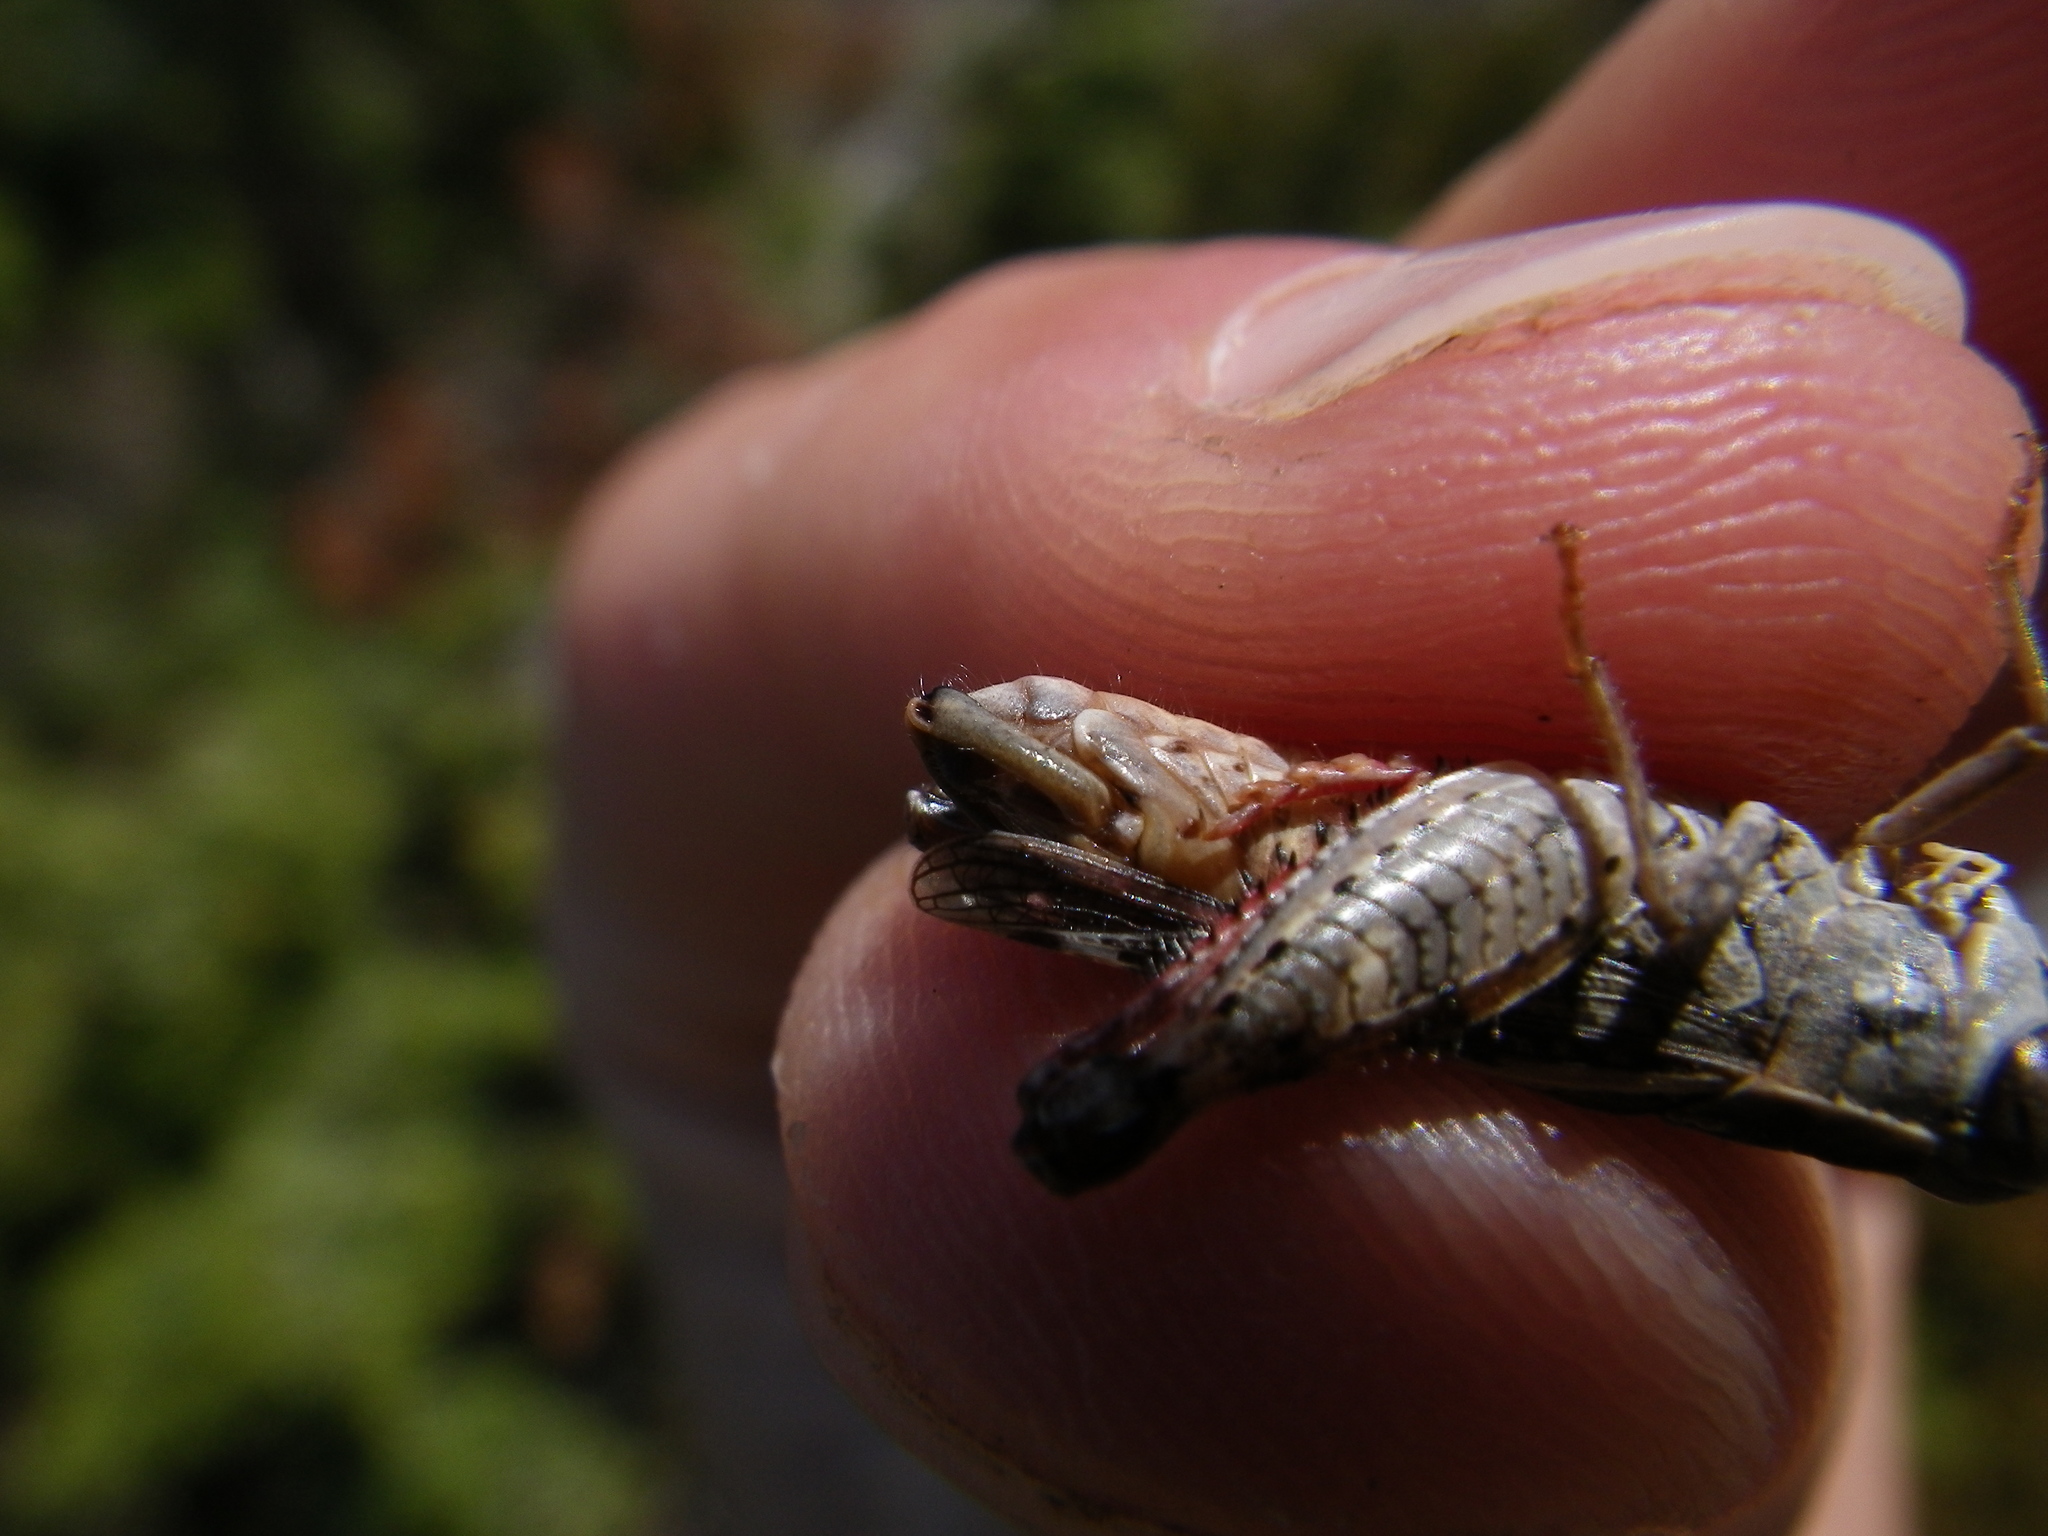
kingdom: Animalia
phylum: Arthropoda
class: Insecta
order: Orthoptera
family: Acrididae
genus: Calliptamus
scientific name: Calliptamus barbarus
